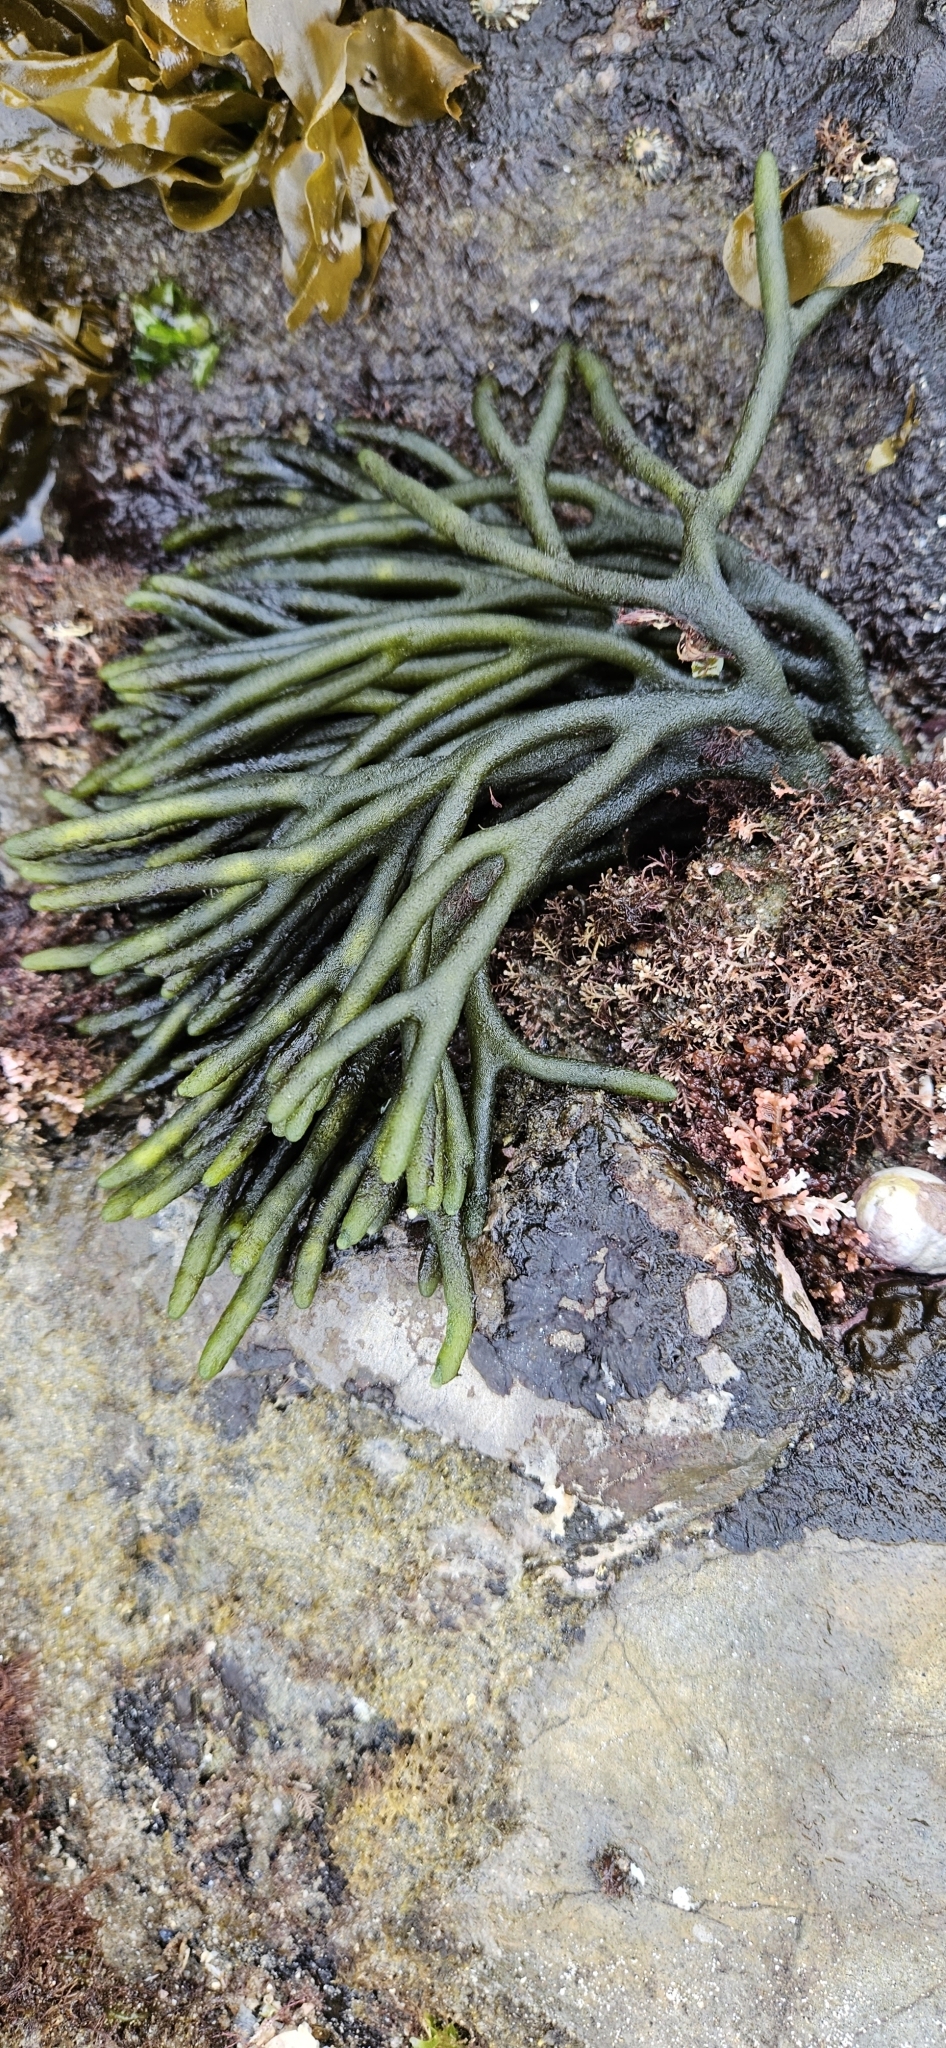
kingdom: Plantae
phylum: Chlorophyta
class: Ulvophyceae
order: Bryopsidales
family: Codiaceae
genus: Codium
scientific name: Codium fragile
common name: Dead man's fingers
